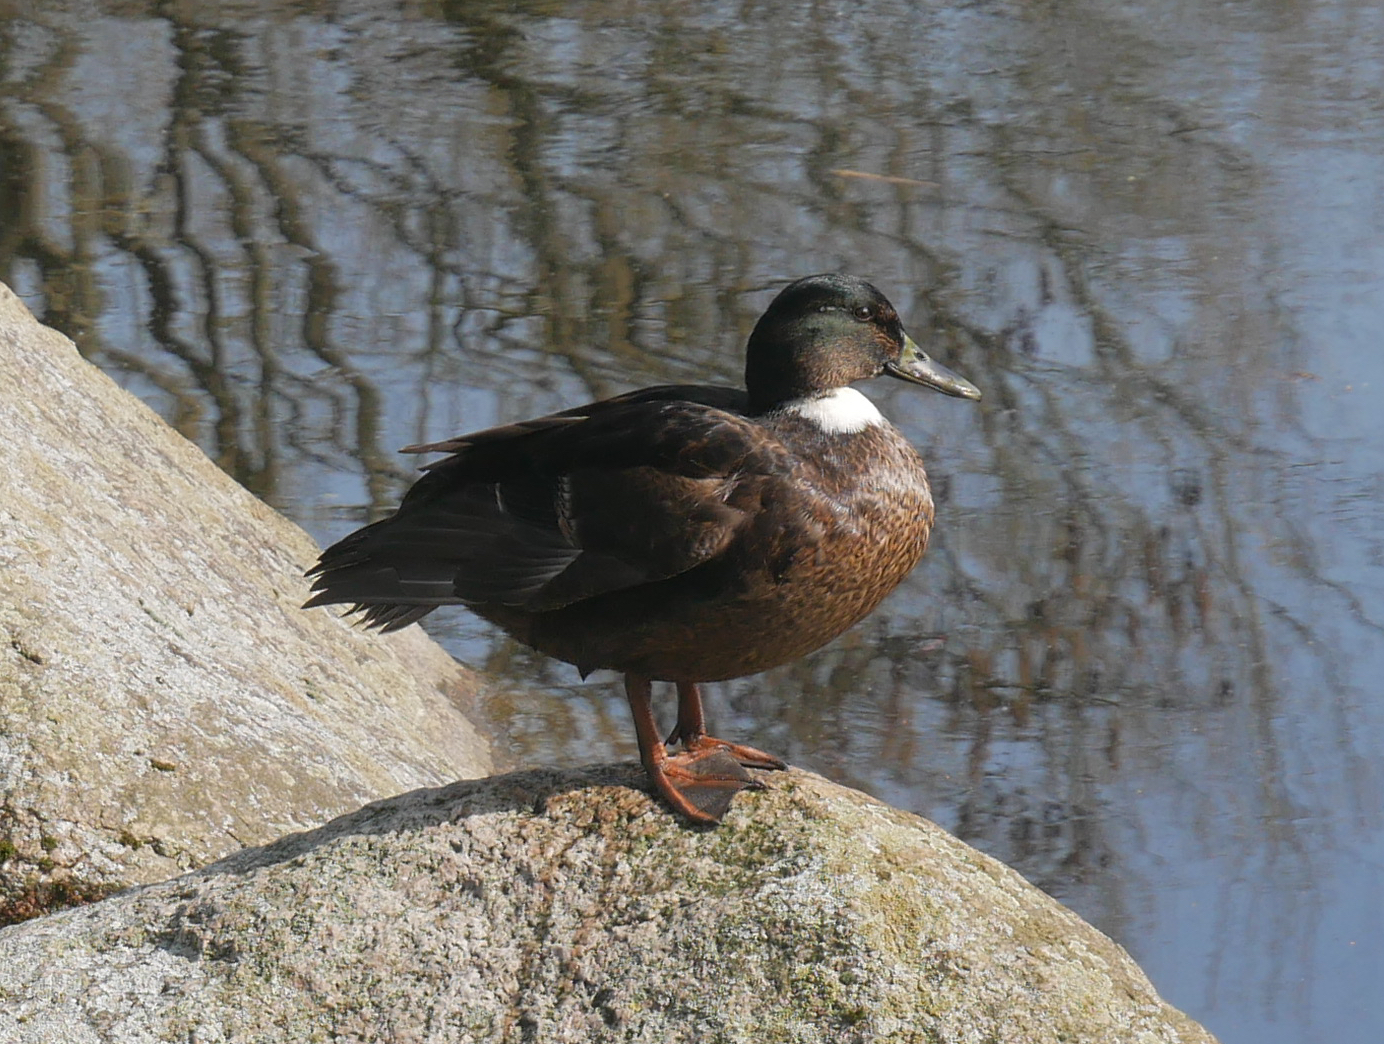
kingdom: Animalia
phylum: Chordata
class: Aves
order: Anseriformes
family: Anatidae
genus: Anas
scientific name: Anas platyrhynchos
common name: Mallard
